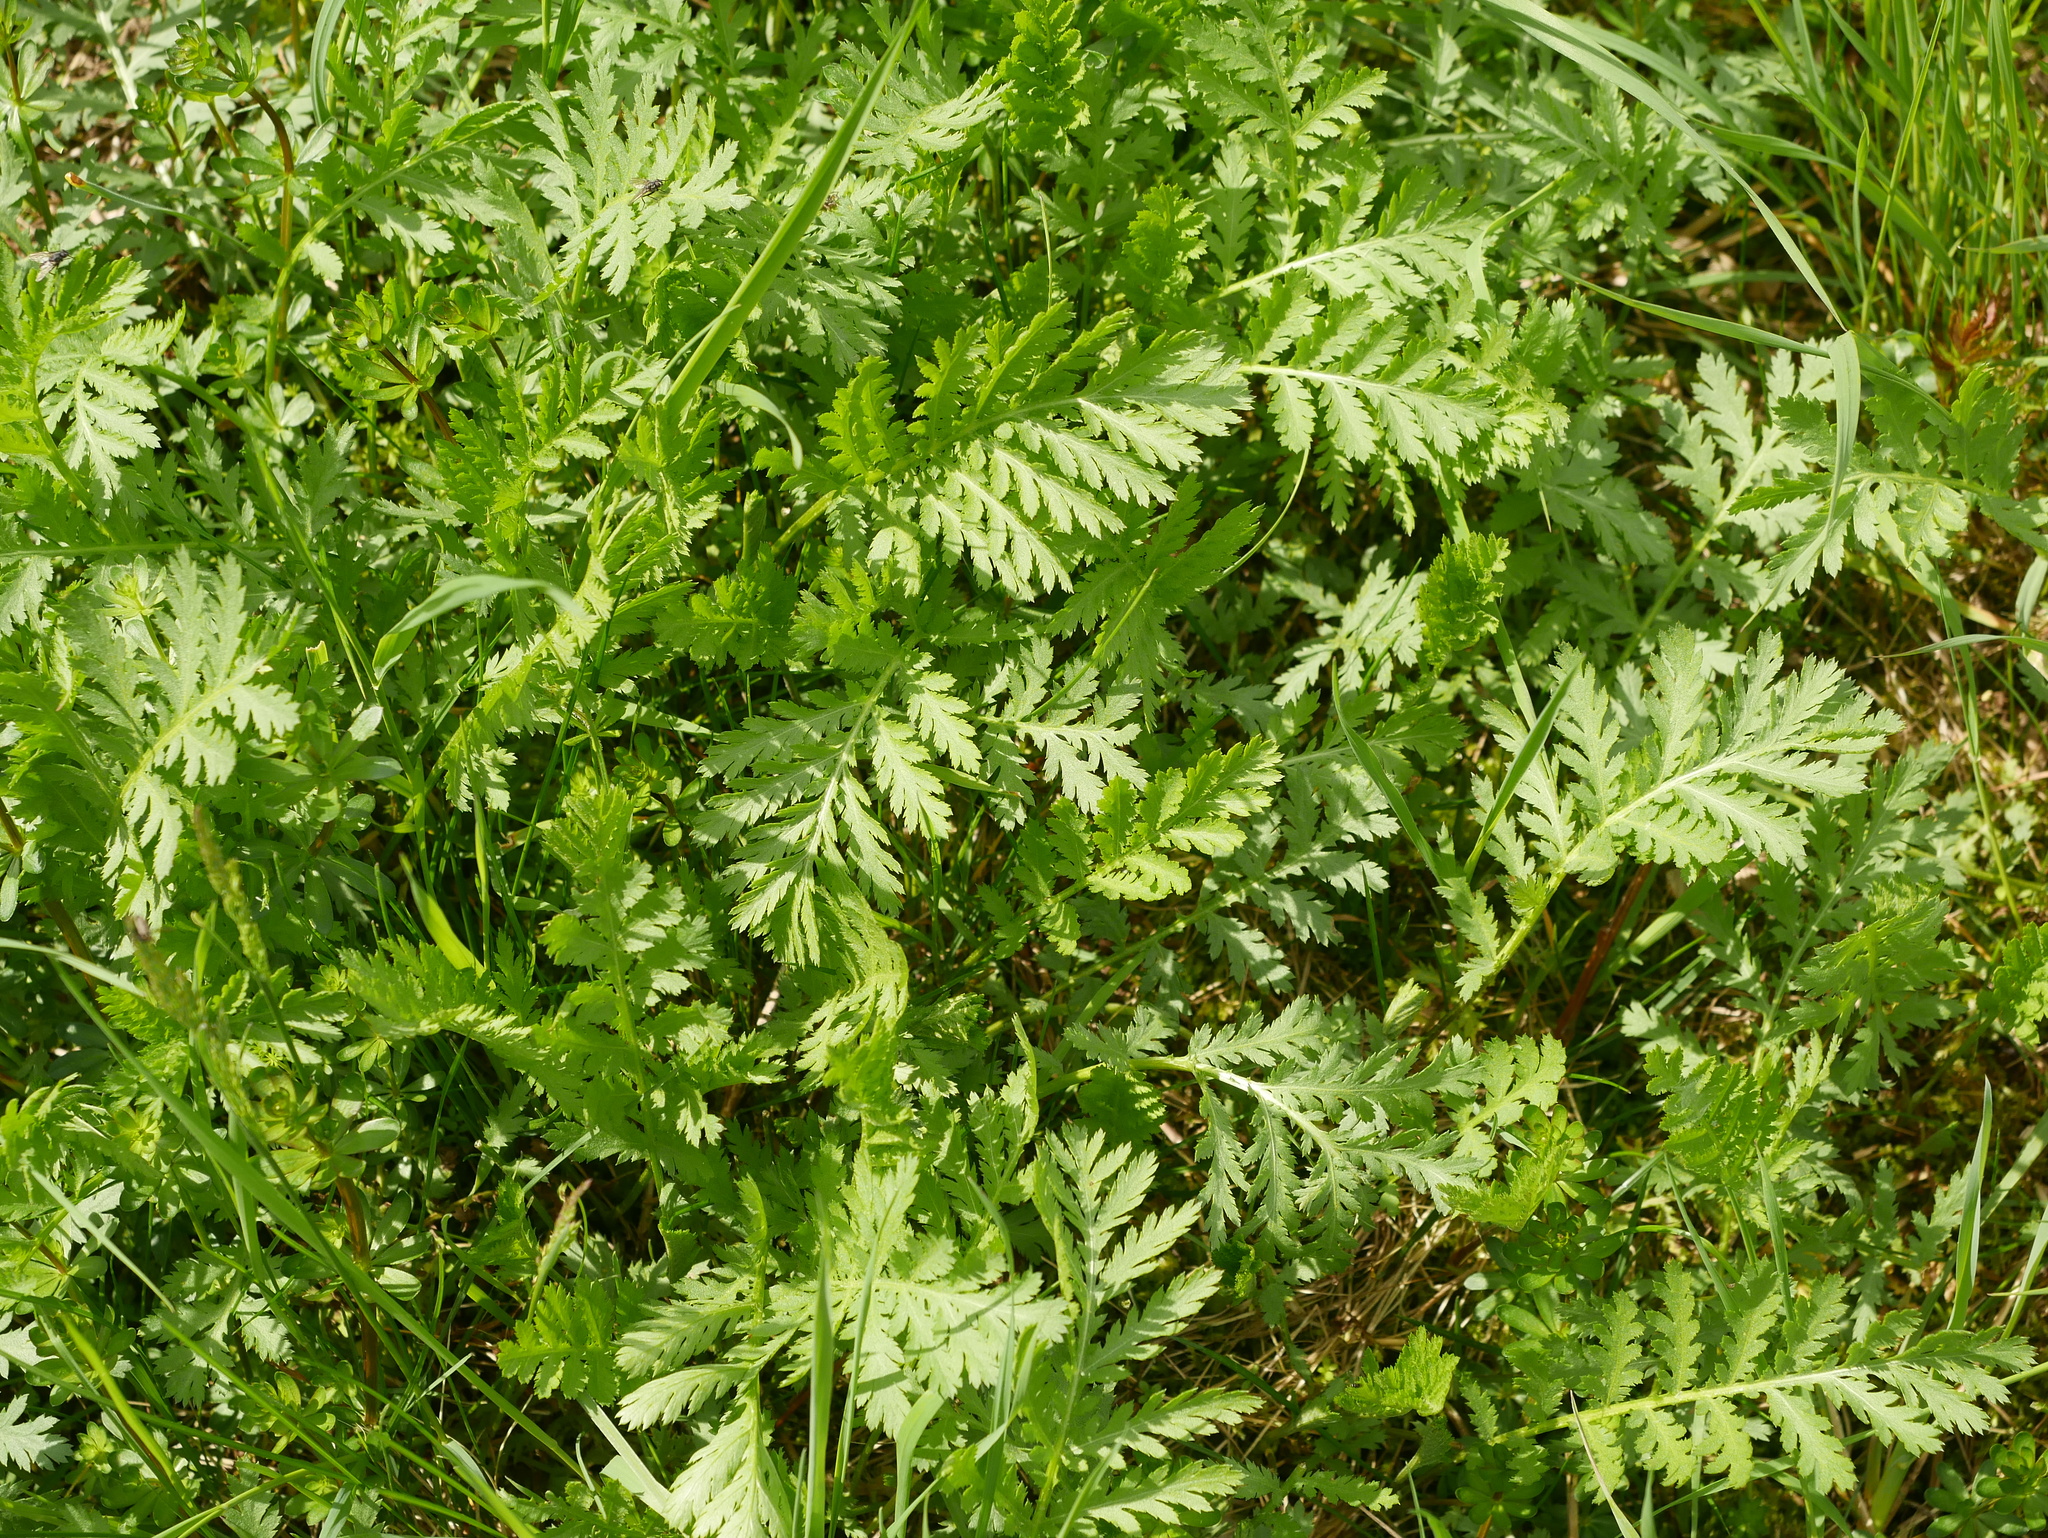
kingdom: Plantae
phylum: Tracheophyta
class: Magnoliopsida
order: Asterales
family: Asteraceae
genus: Tanacetum
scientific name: Tanacetum vulgare
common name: Common tansy
